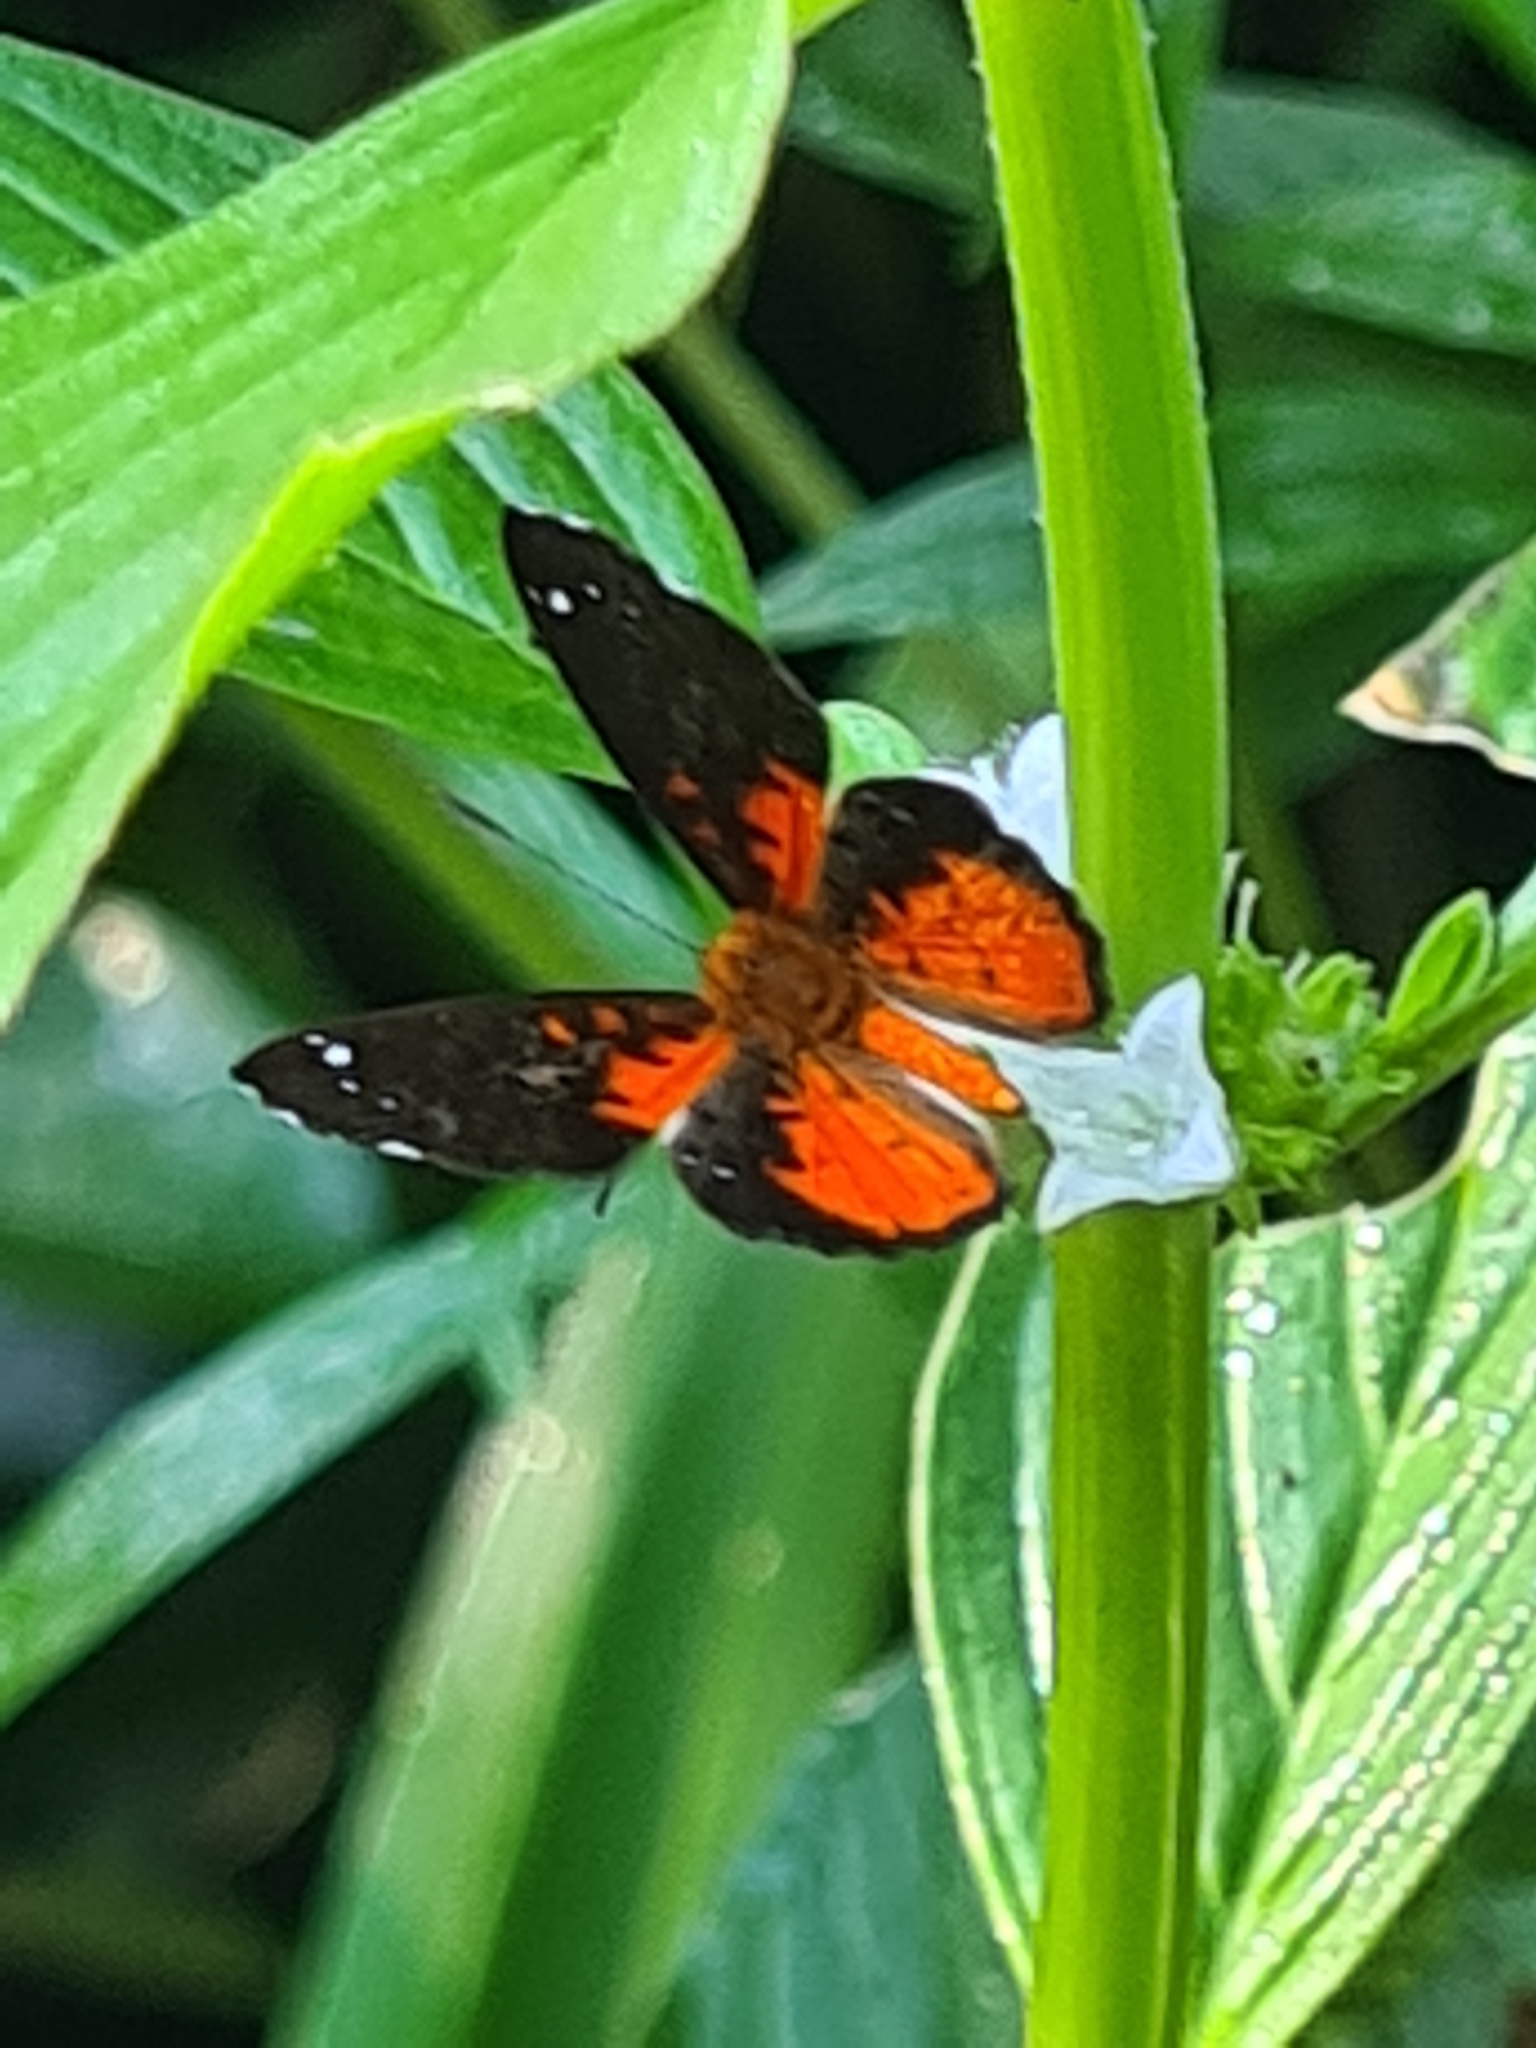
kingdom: Animalia
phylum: Arthropoda
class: Insecta
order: Lepidoptera
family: Riodinidae
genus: Polystichtis
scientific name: Polystichtis emylius
